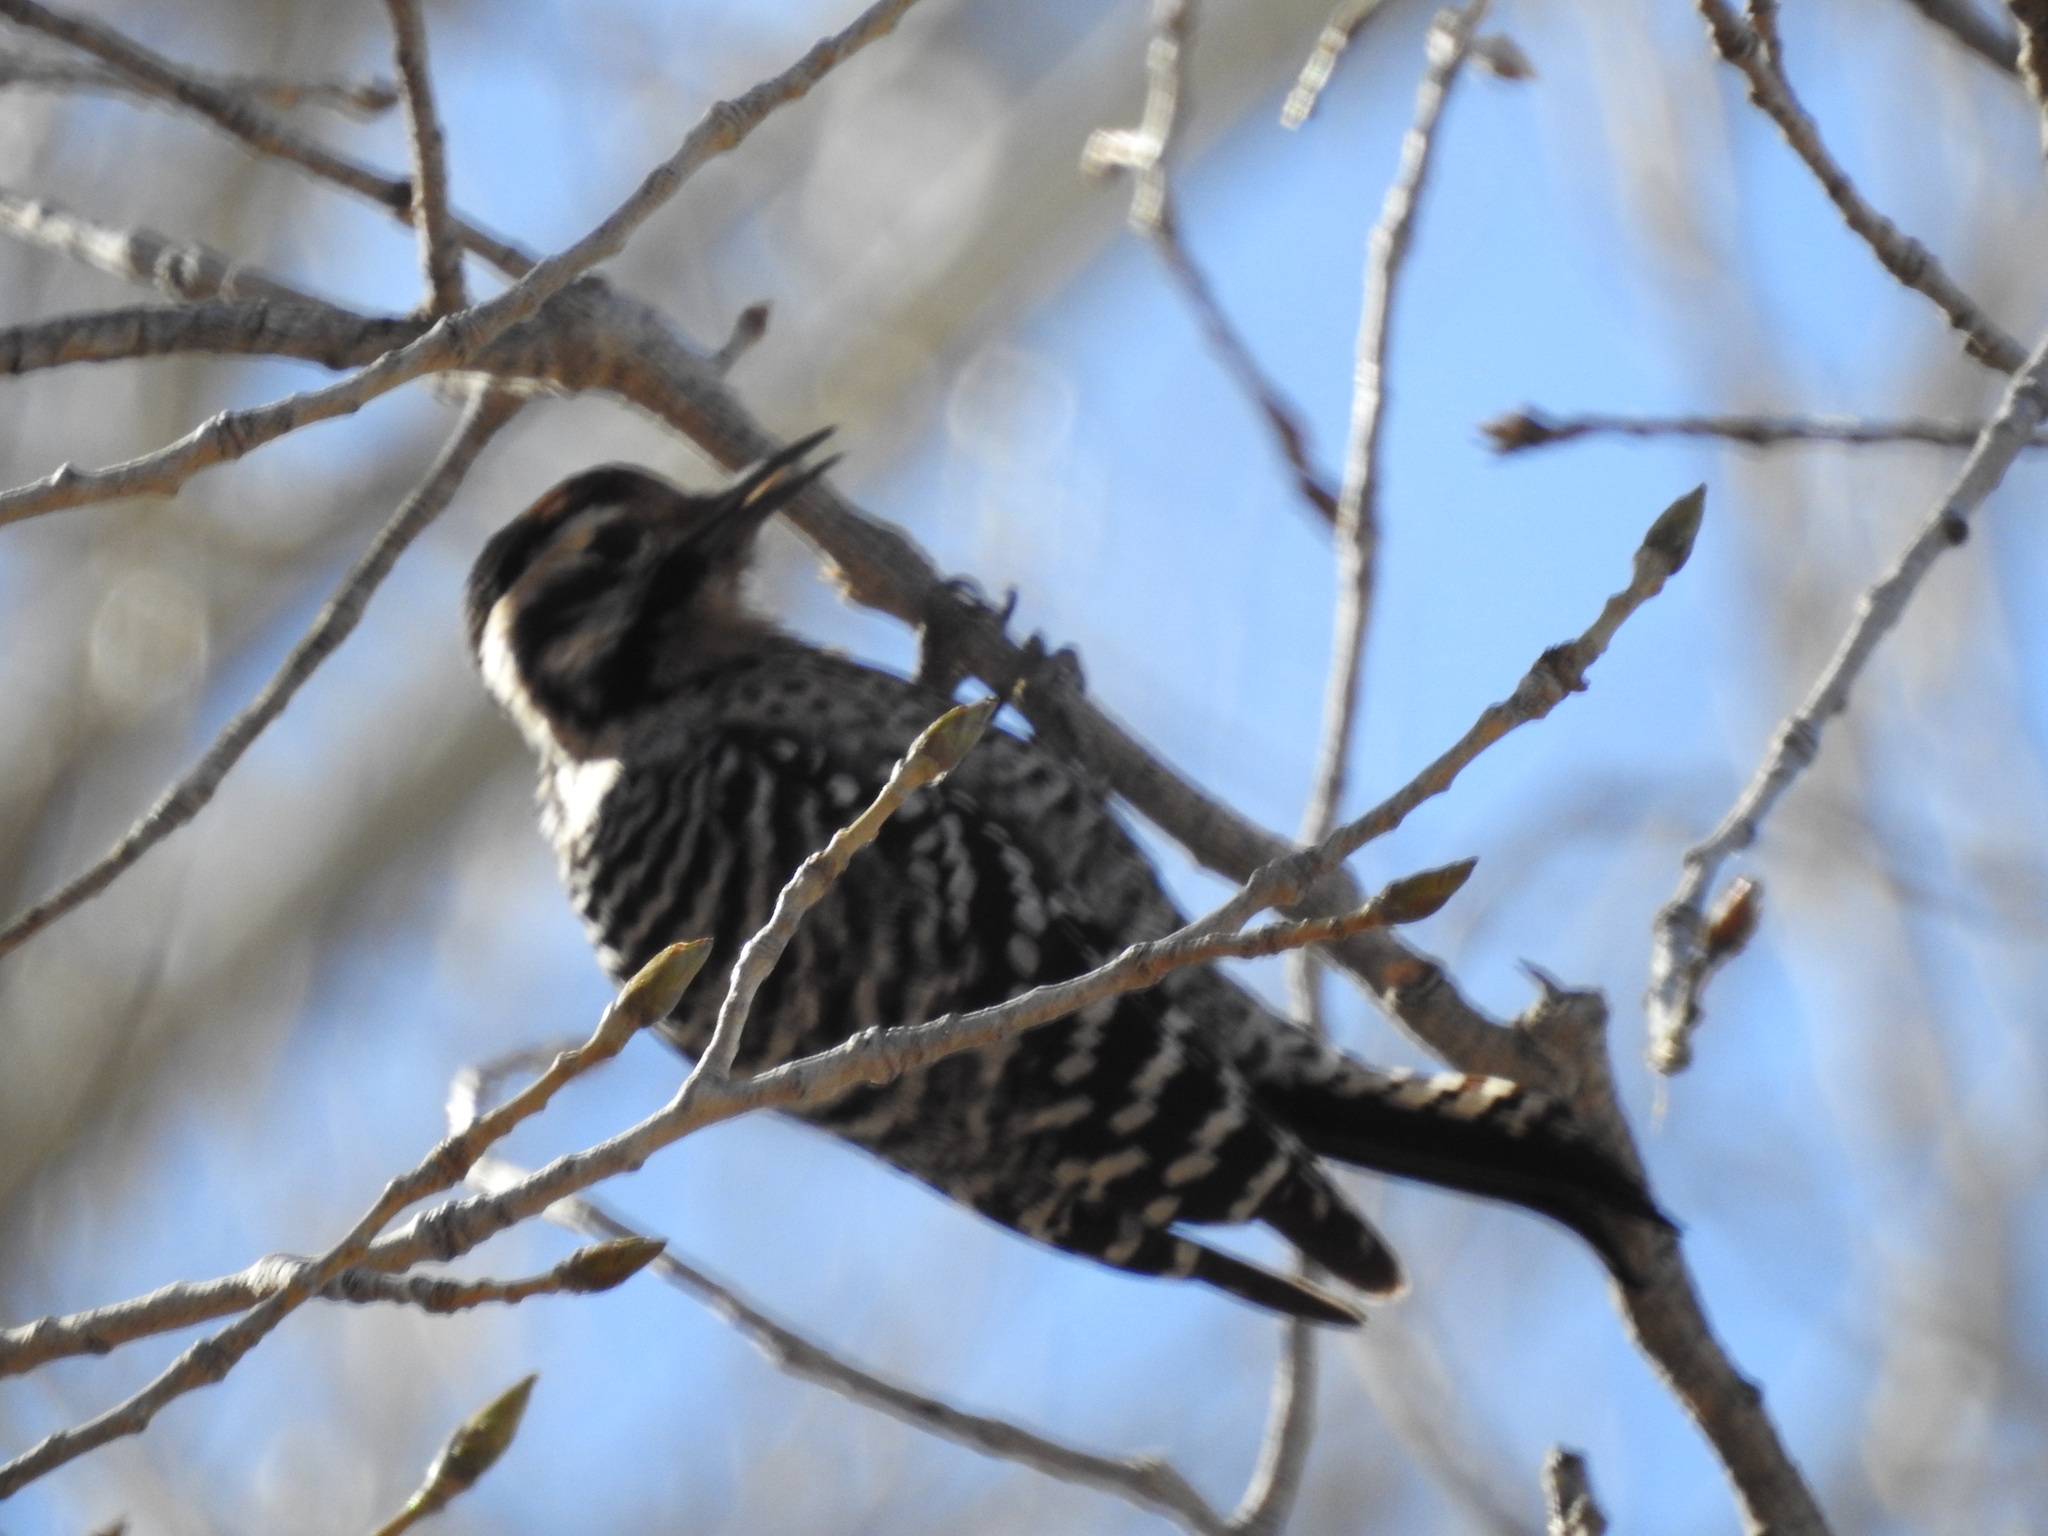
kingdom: Animalia
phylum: Chordata
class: Aves
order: Piciformes
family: Picidae
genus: Dryobates
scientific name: Dryobates scalaris
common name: Ladder-backed woodpecker
